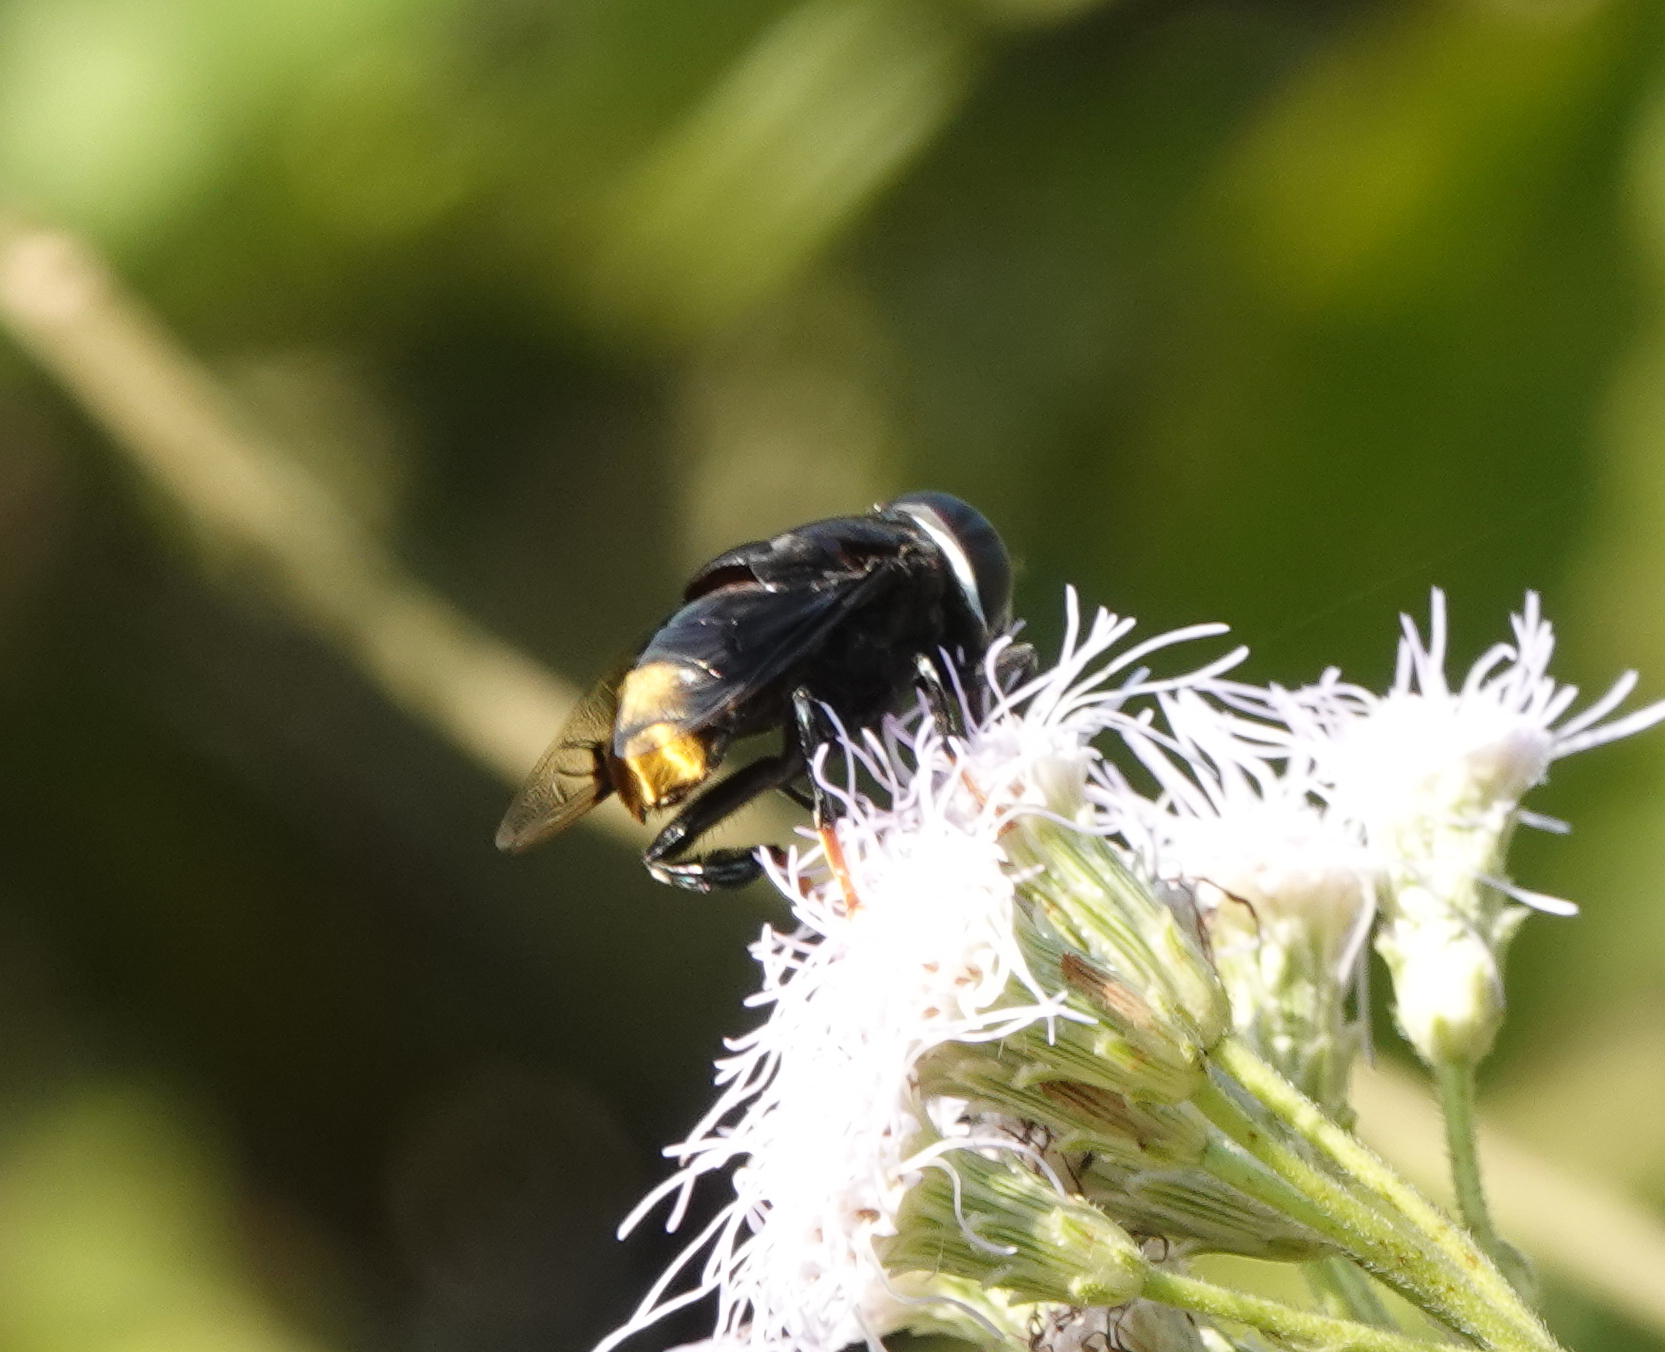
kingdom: Animalia
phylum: Arthropoda
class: Insecta
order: Diptera
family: Syrphidae
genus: Phytomia
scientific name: Phytomia chrysopyga
